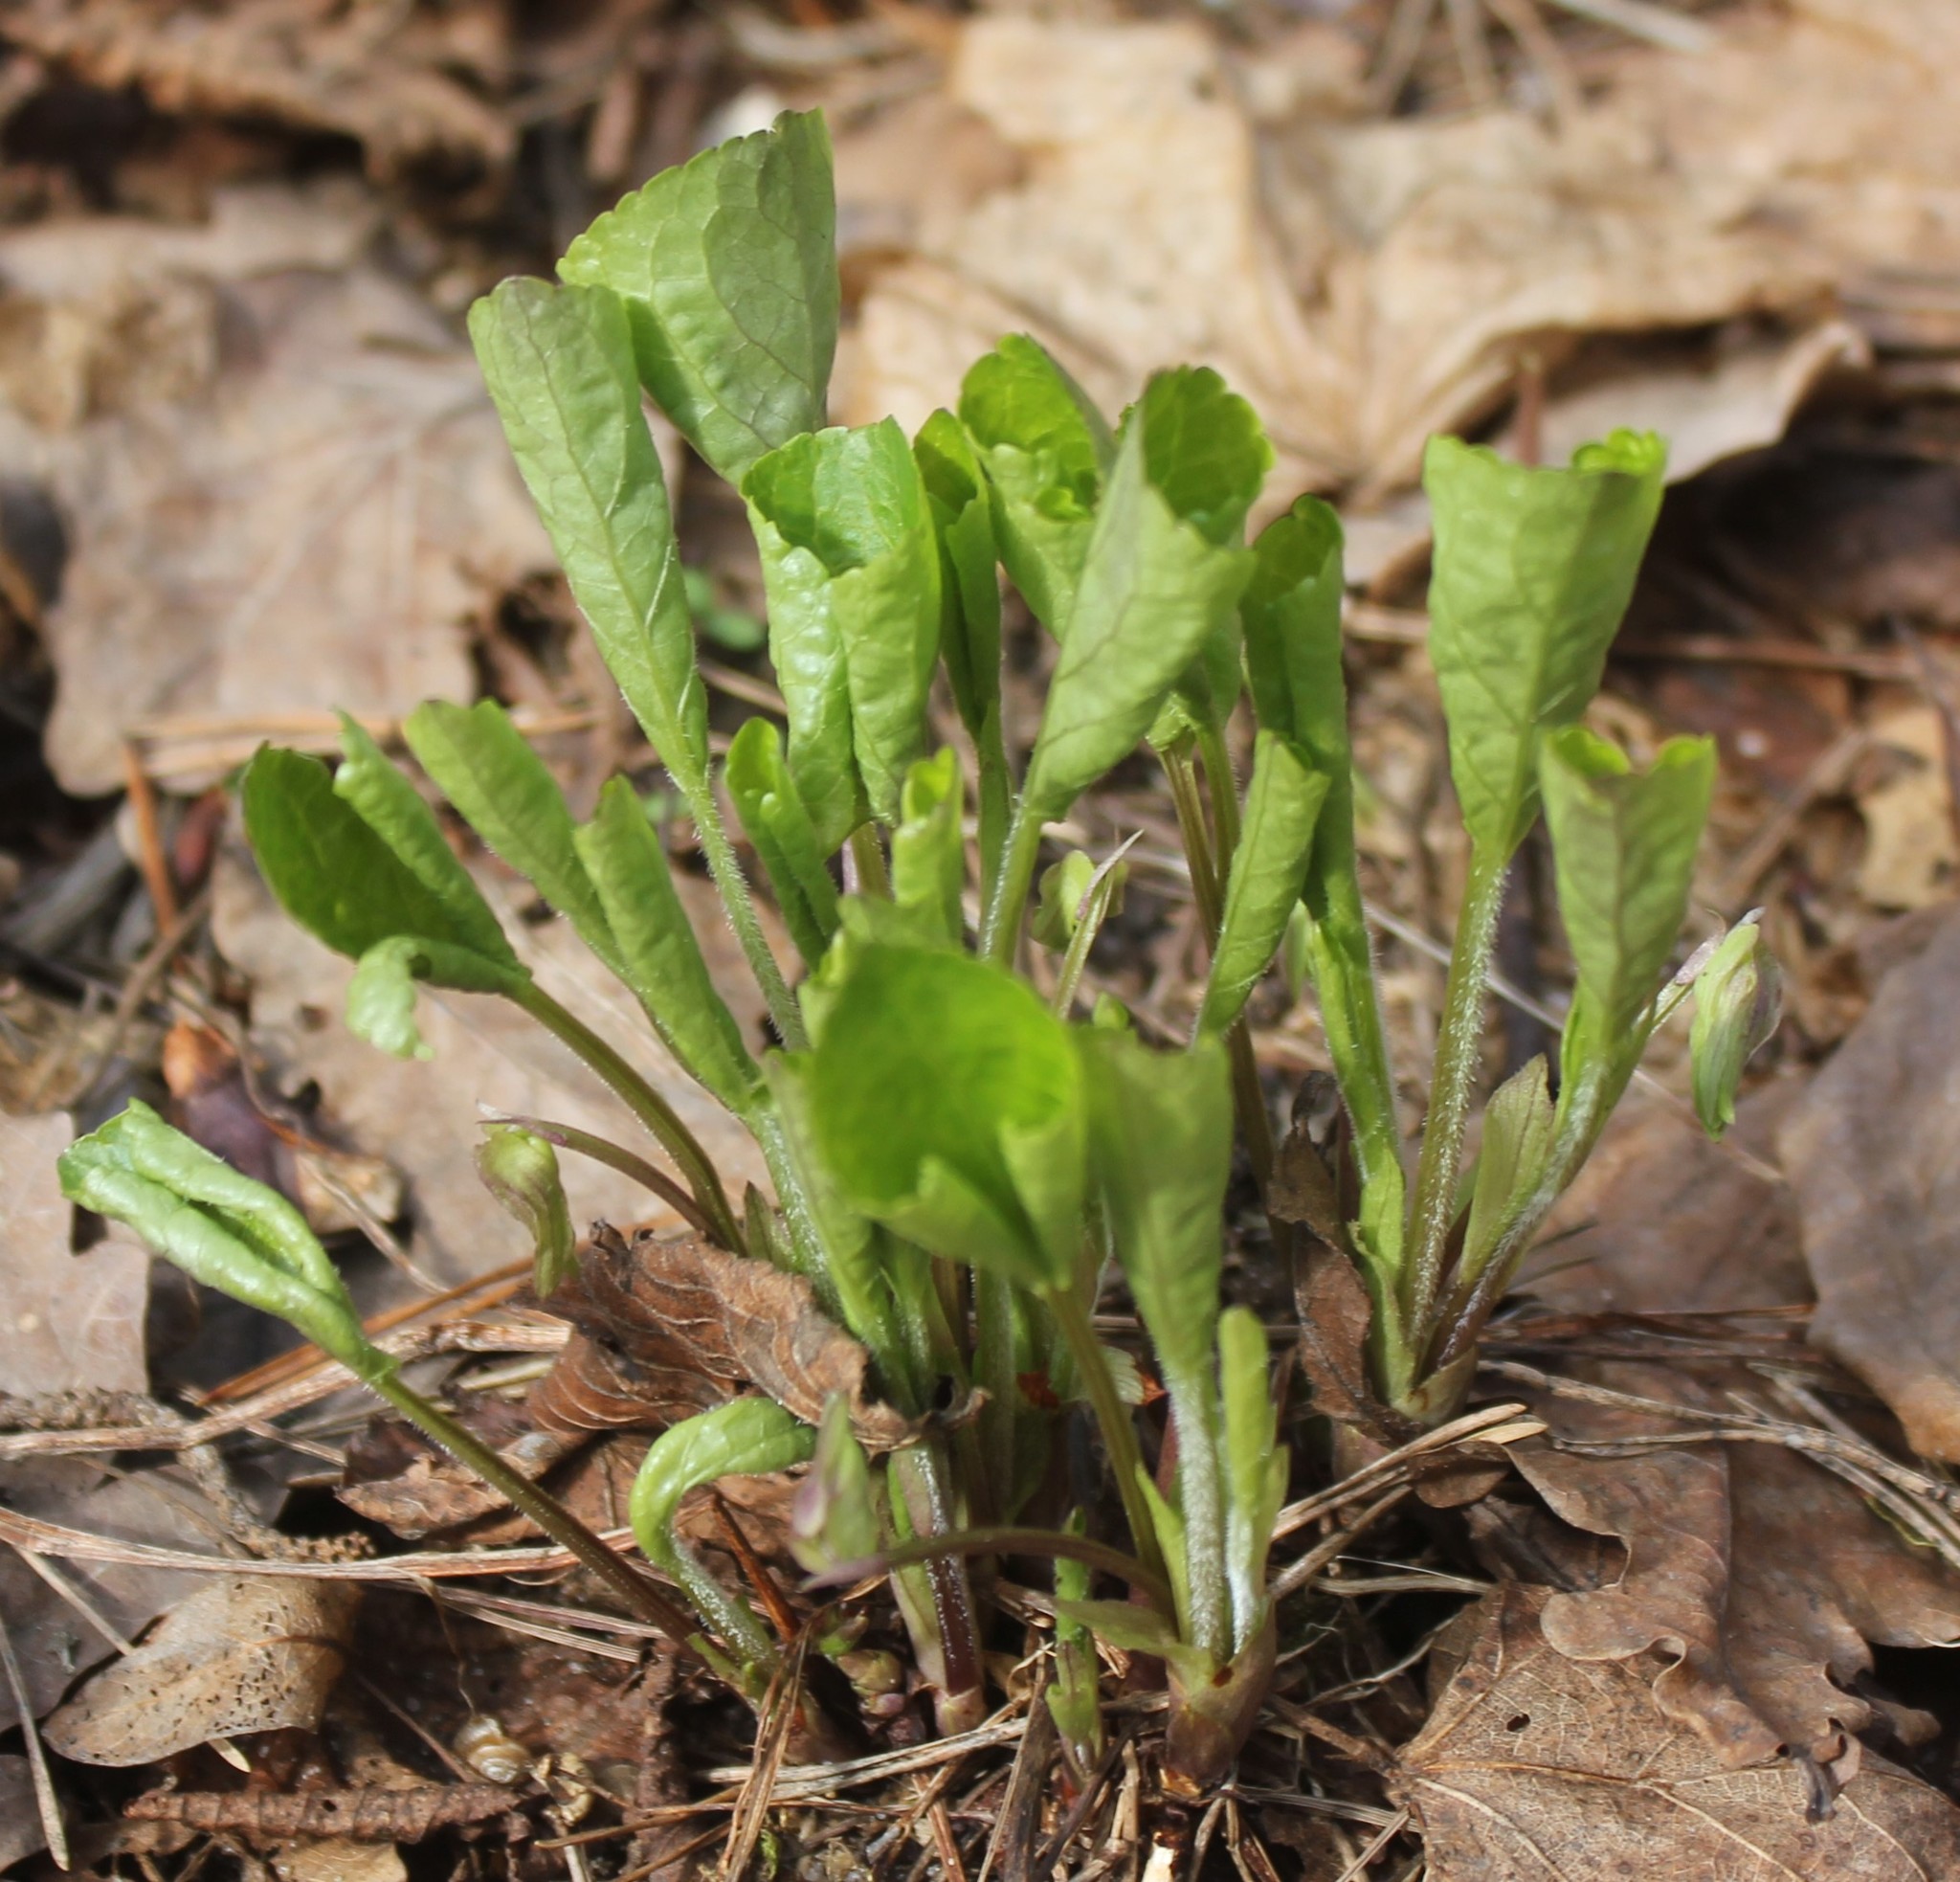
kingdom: Plantae
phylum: Tracheophyta
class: Magnoliopsida
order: Malpighiales
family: Violaceae
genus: Viola
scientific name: Viola mirabilis
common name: Wonder violet
